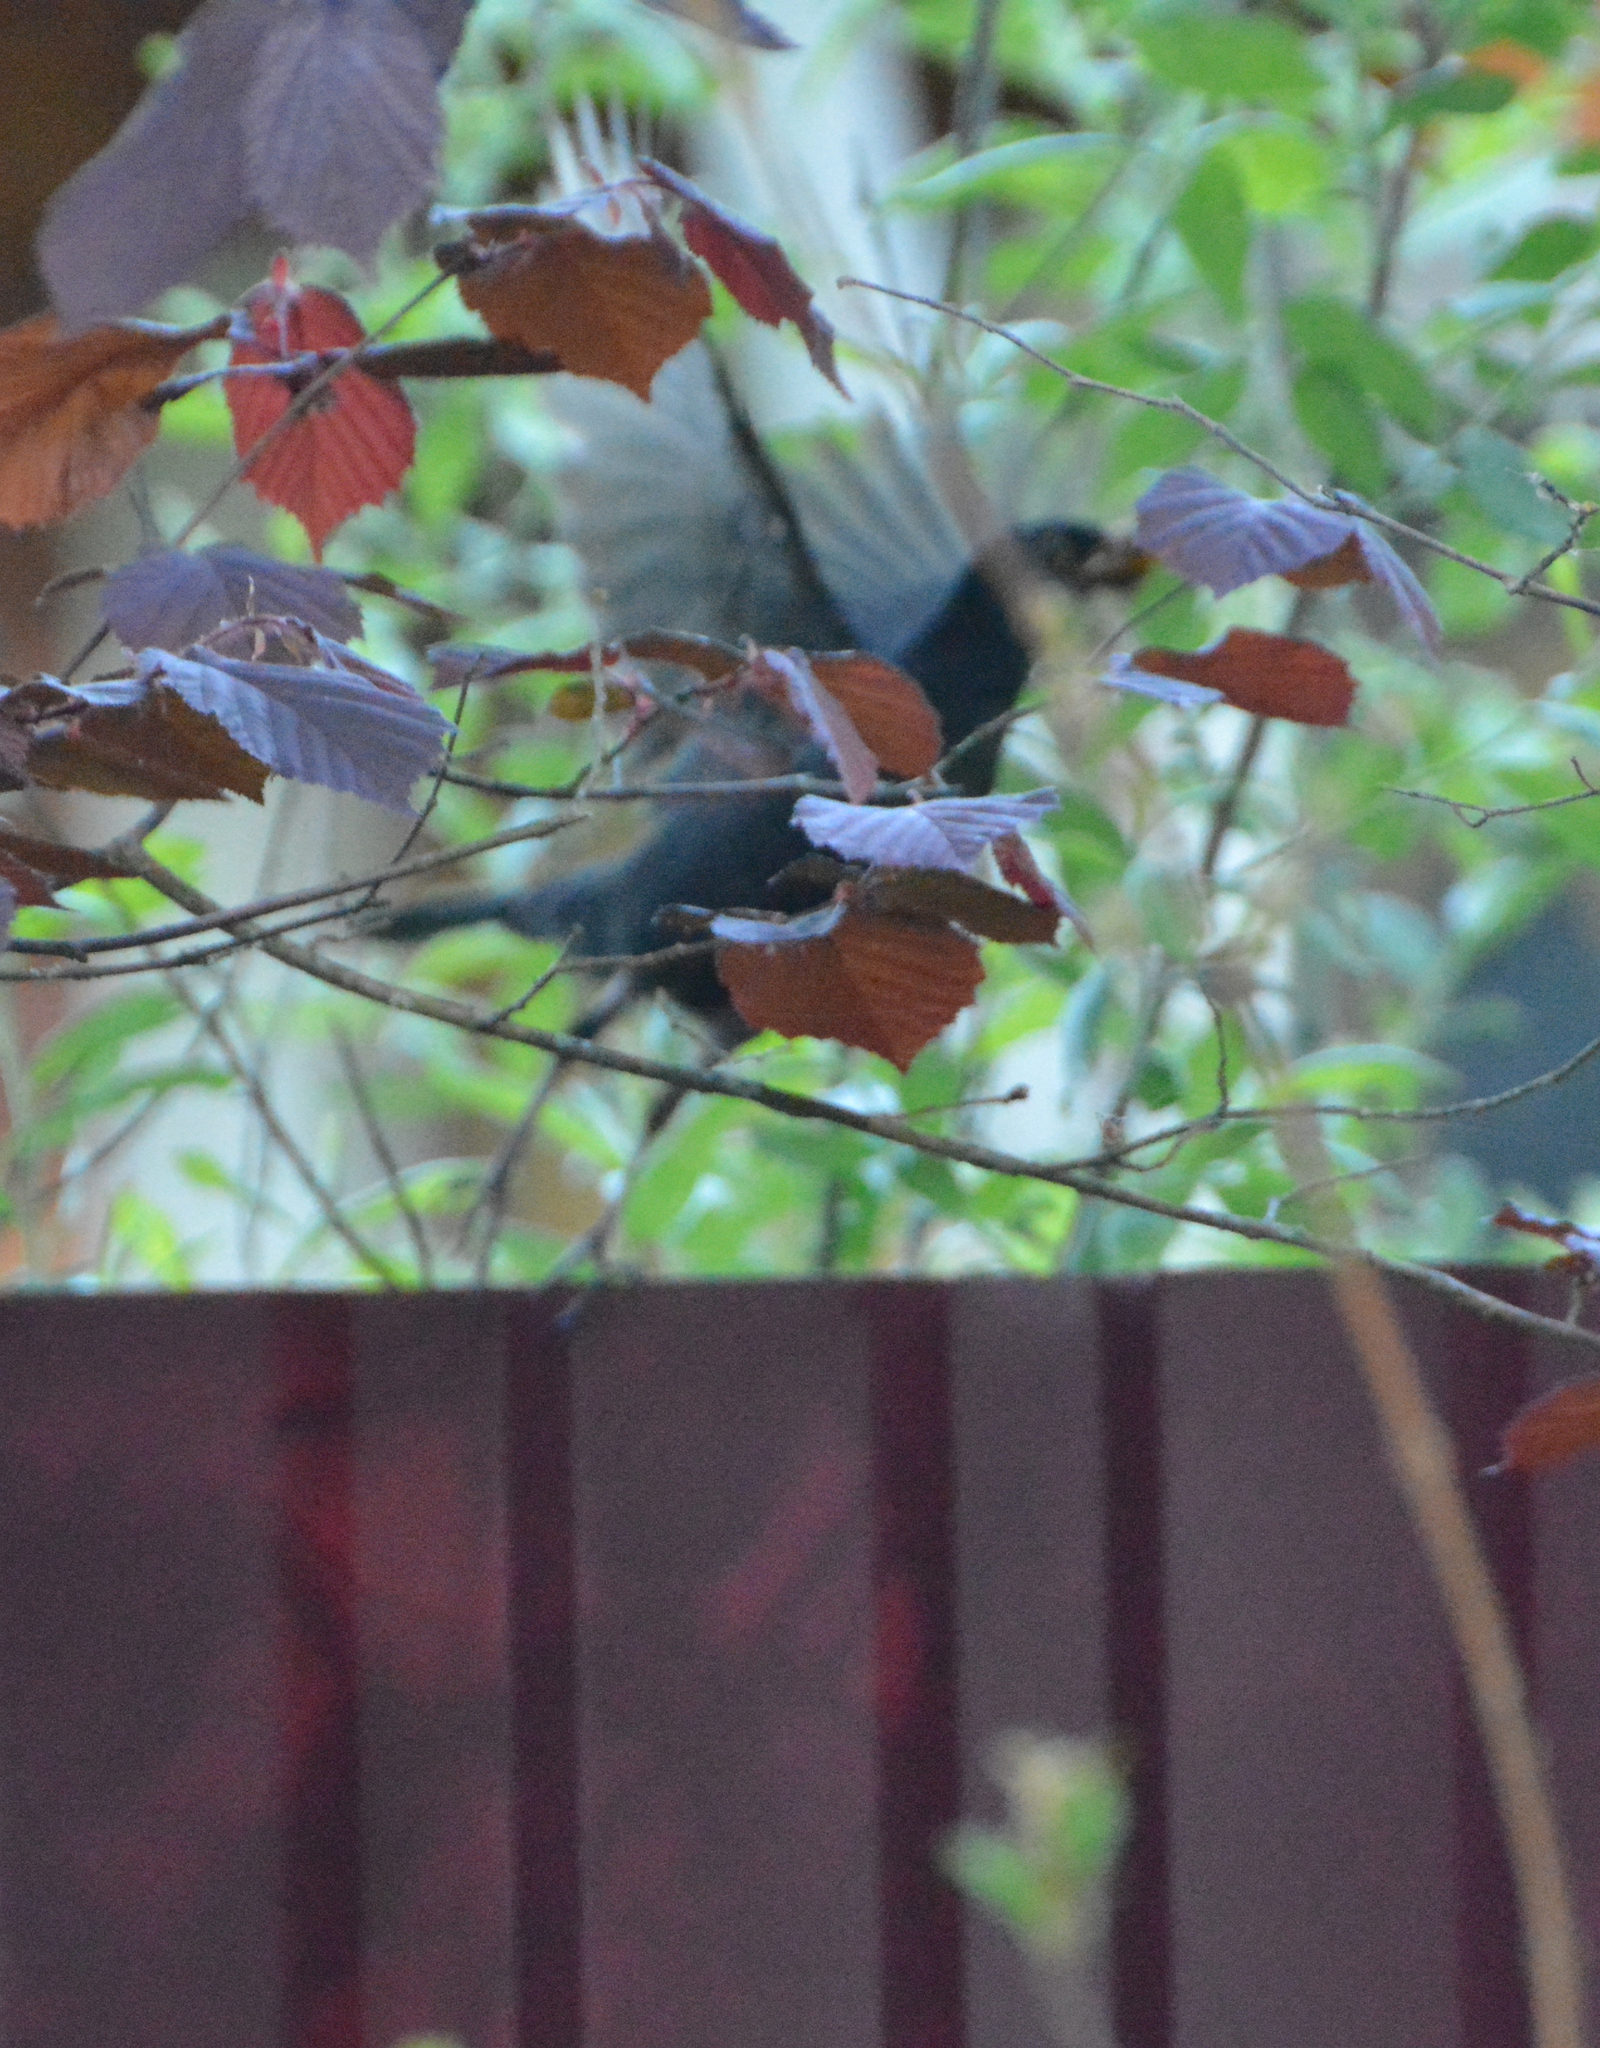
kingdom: Animalia
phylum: Chordata
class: Aves
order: Passeriformes
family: Turdidae
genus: Turdus
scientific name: Turdus merula
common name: Common blackbird
